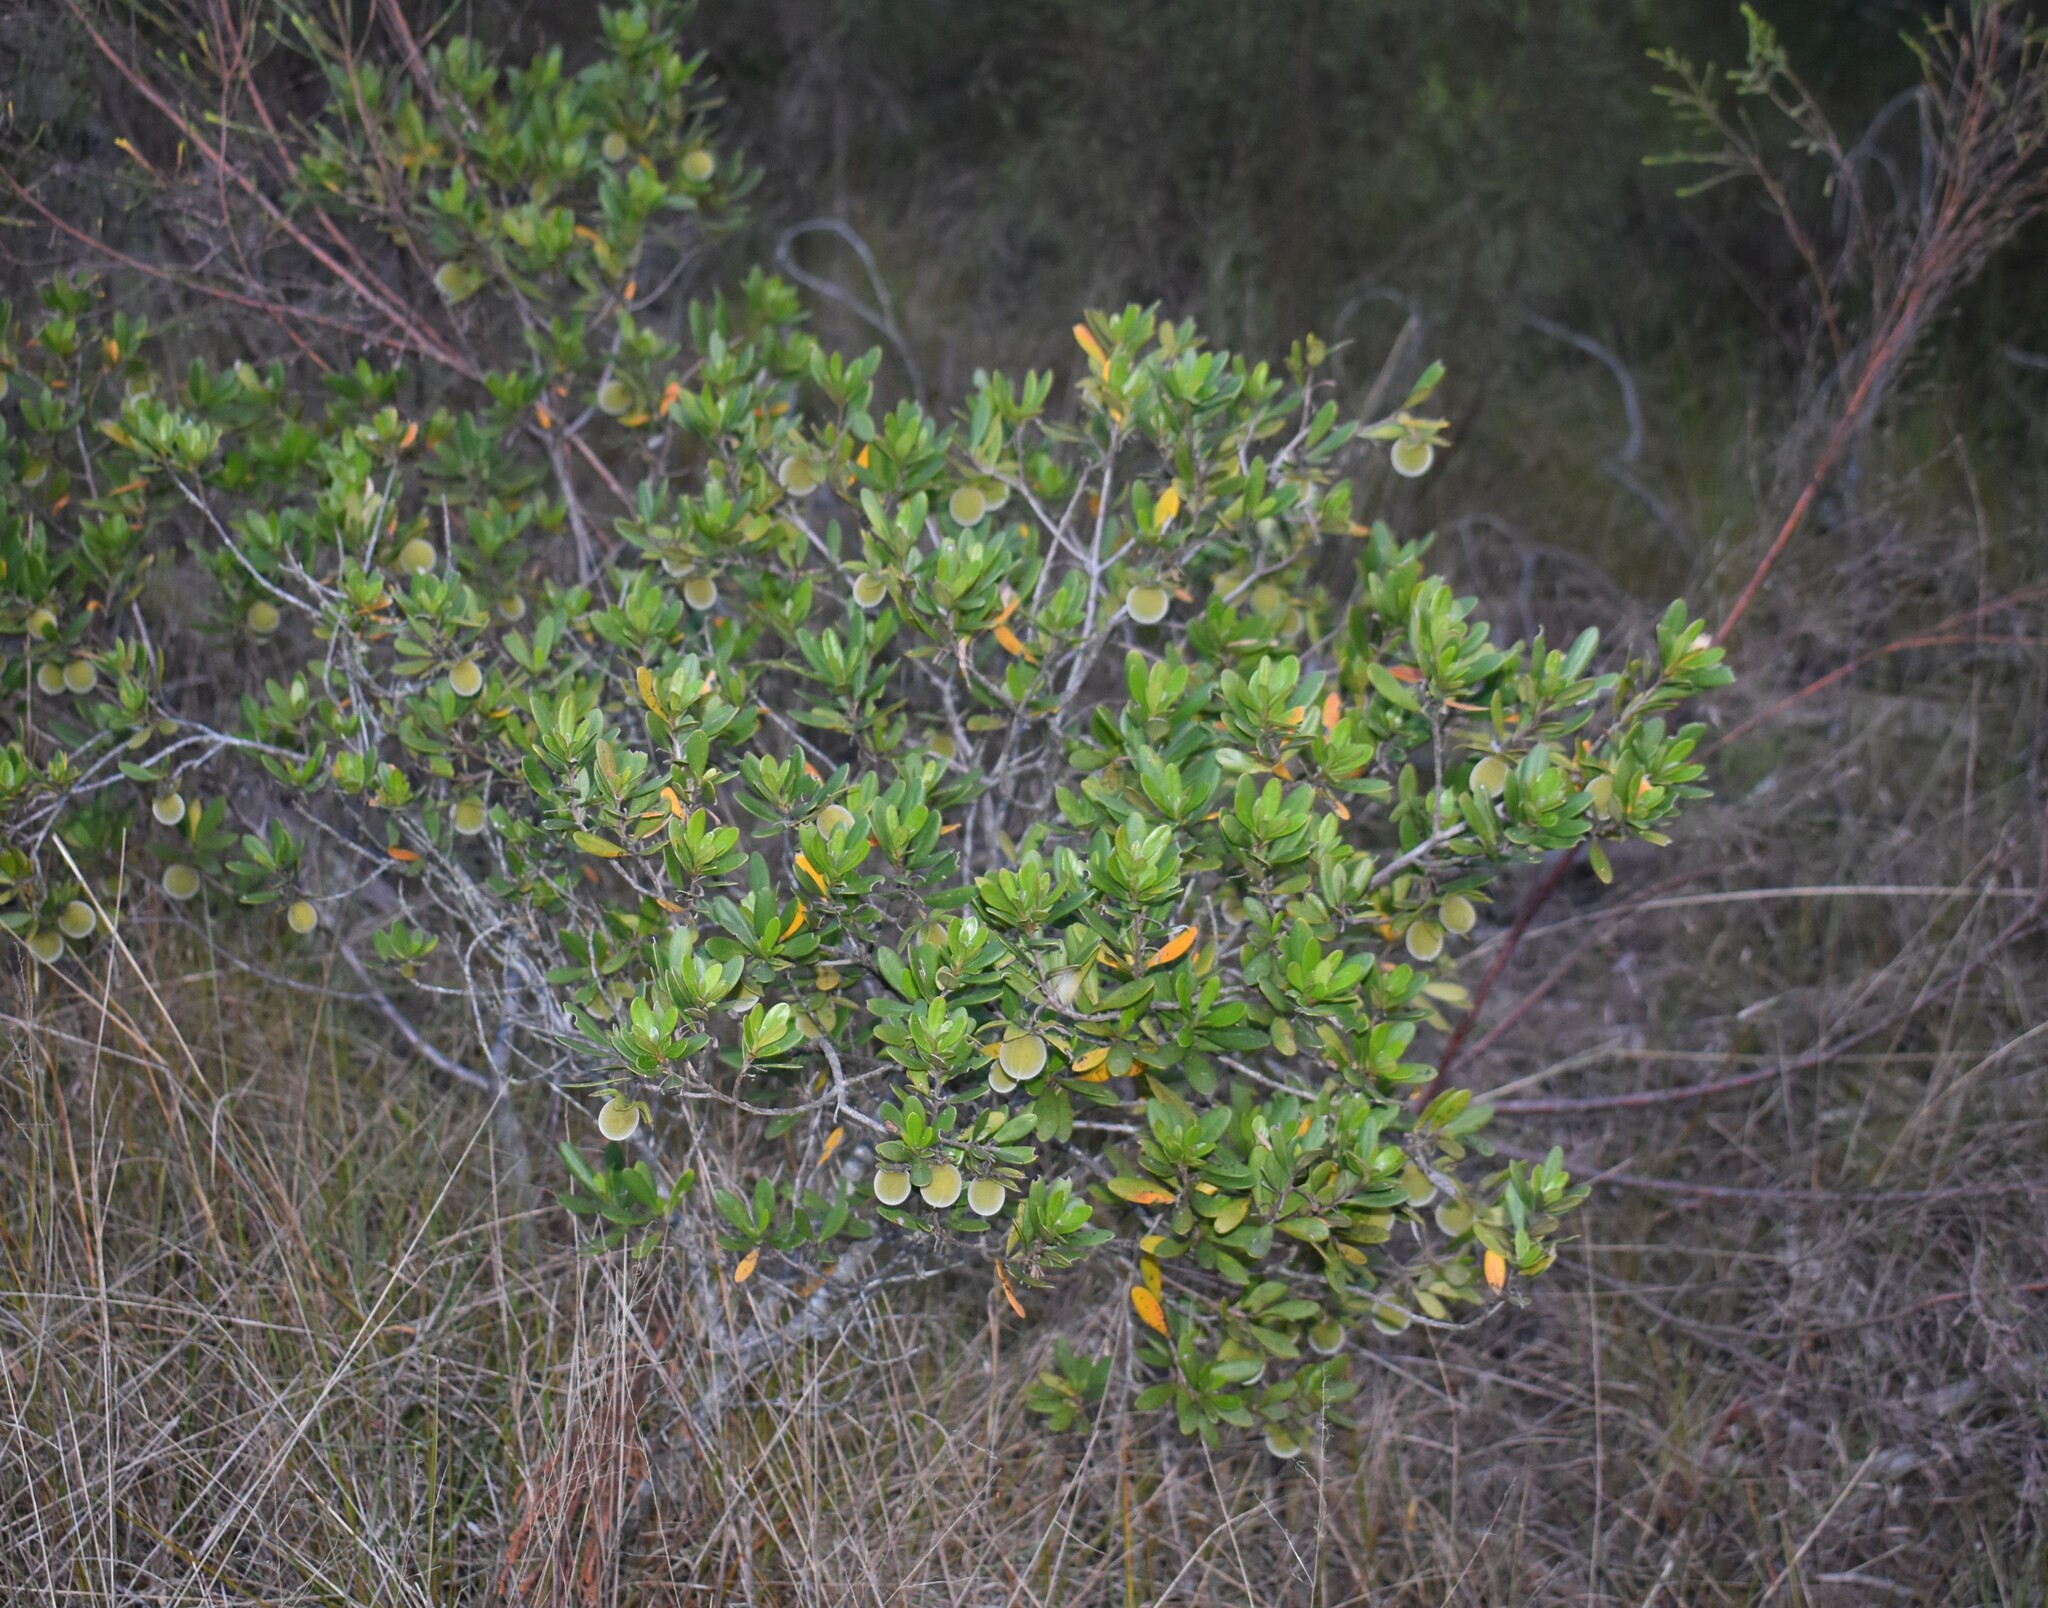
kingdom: Plantae
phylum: Tracheophyta
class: Magnoliopsida
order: Ericales
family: Ebenaceae
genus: Diospyros
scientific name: Diospyros dichrophylla
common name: Common star-apple
